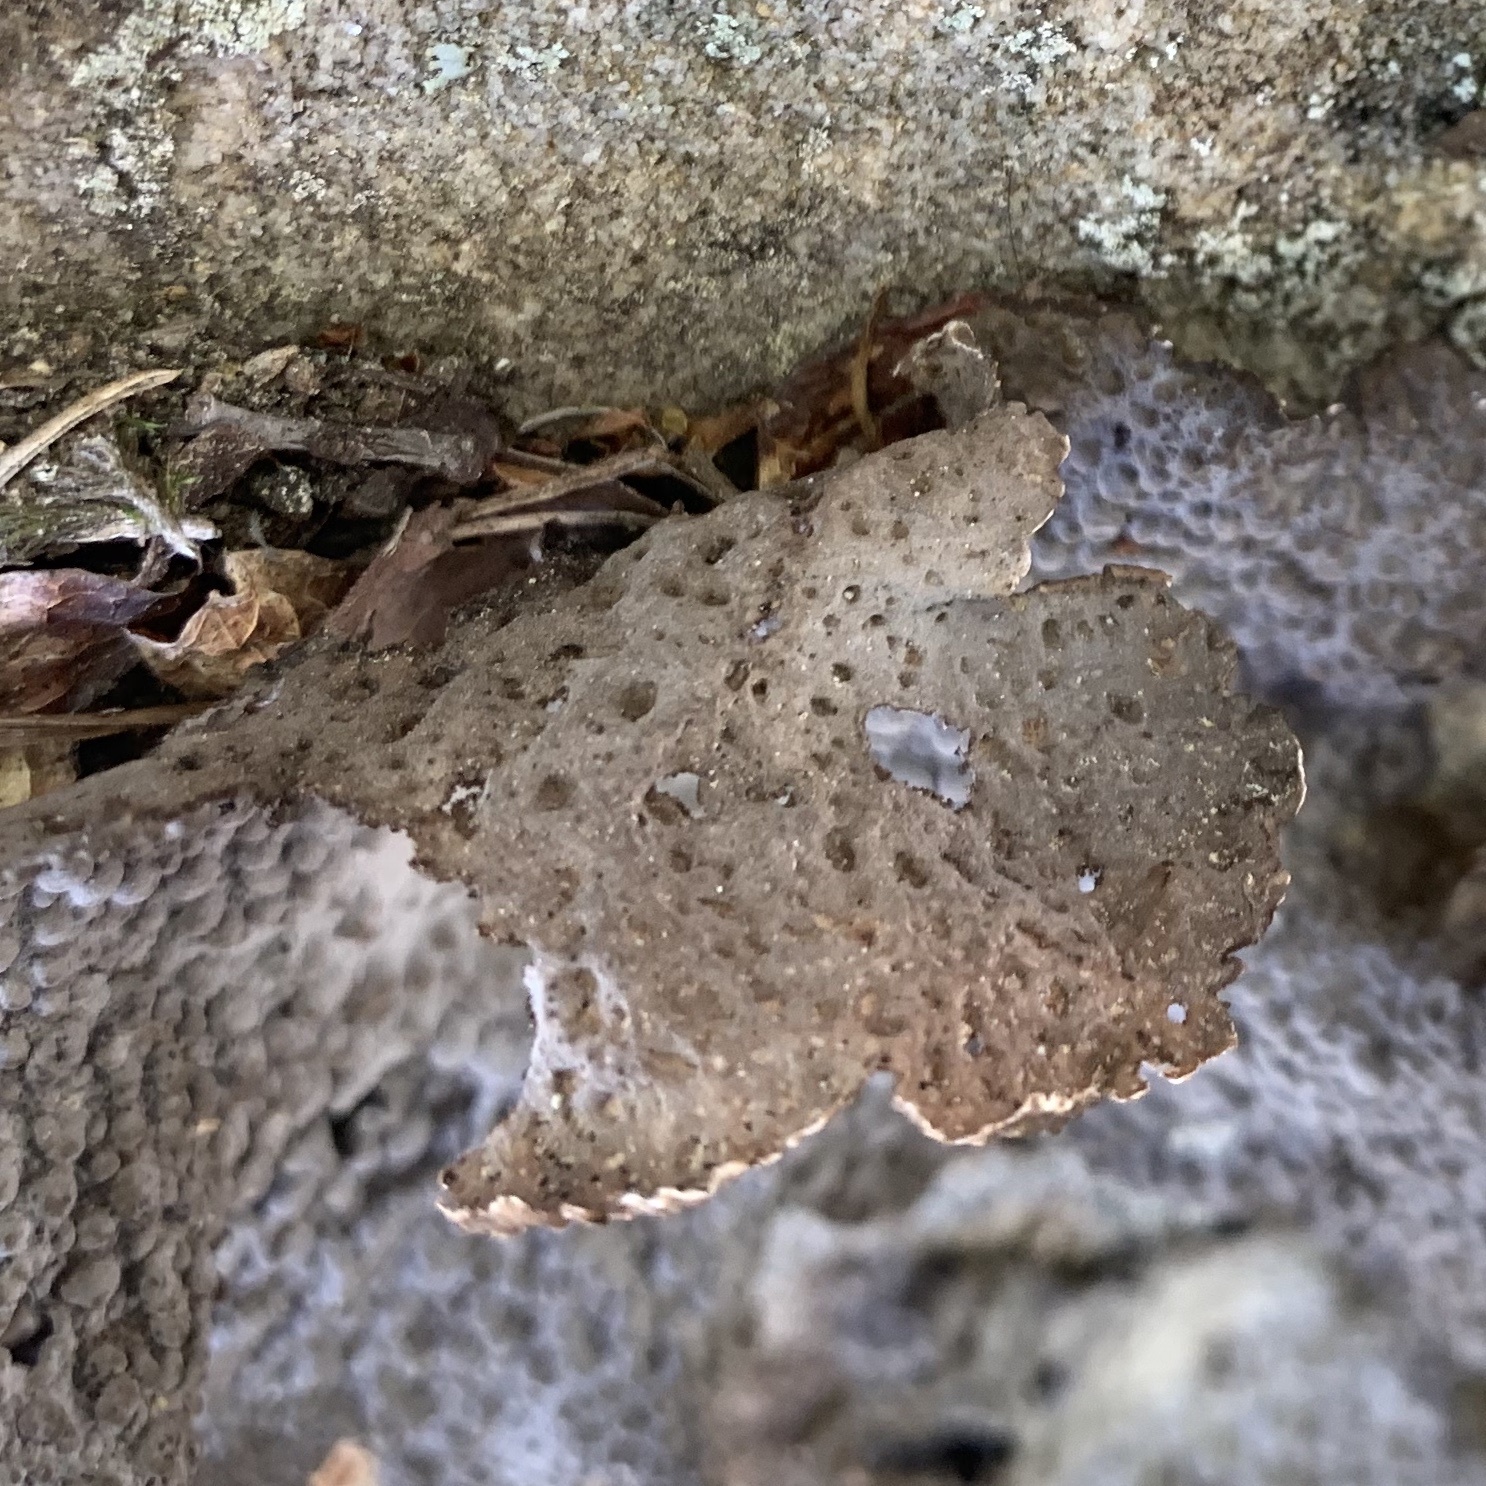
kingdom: Fungi
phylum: Ascomycota
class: Lecanoromycetes
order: Umbilicariales
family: Umbilicariaceae
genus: Lasallia
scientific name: Lasallia papulosa
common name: Common toadskin lichen
